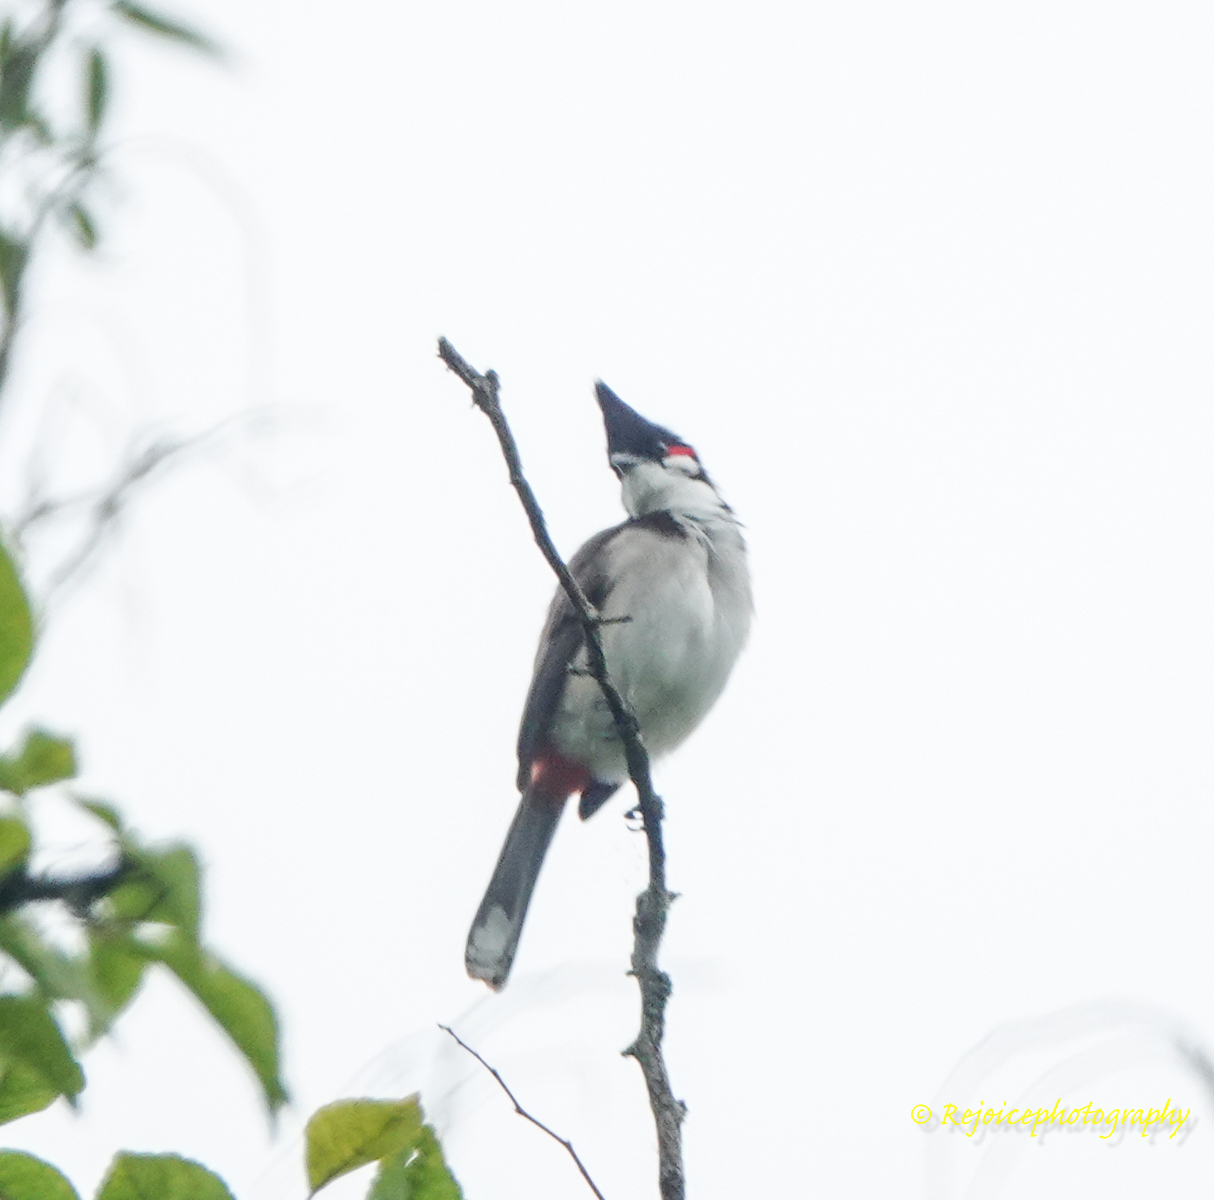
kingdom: Animalia
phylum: Chordata
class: Aves
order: Passeriformes
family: Pycnonotidae
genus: Pycnonotus
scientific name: Pycnonotus jocosus
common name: Red-whiskered bulbul
